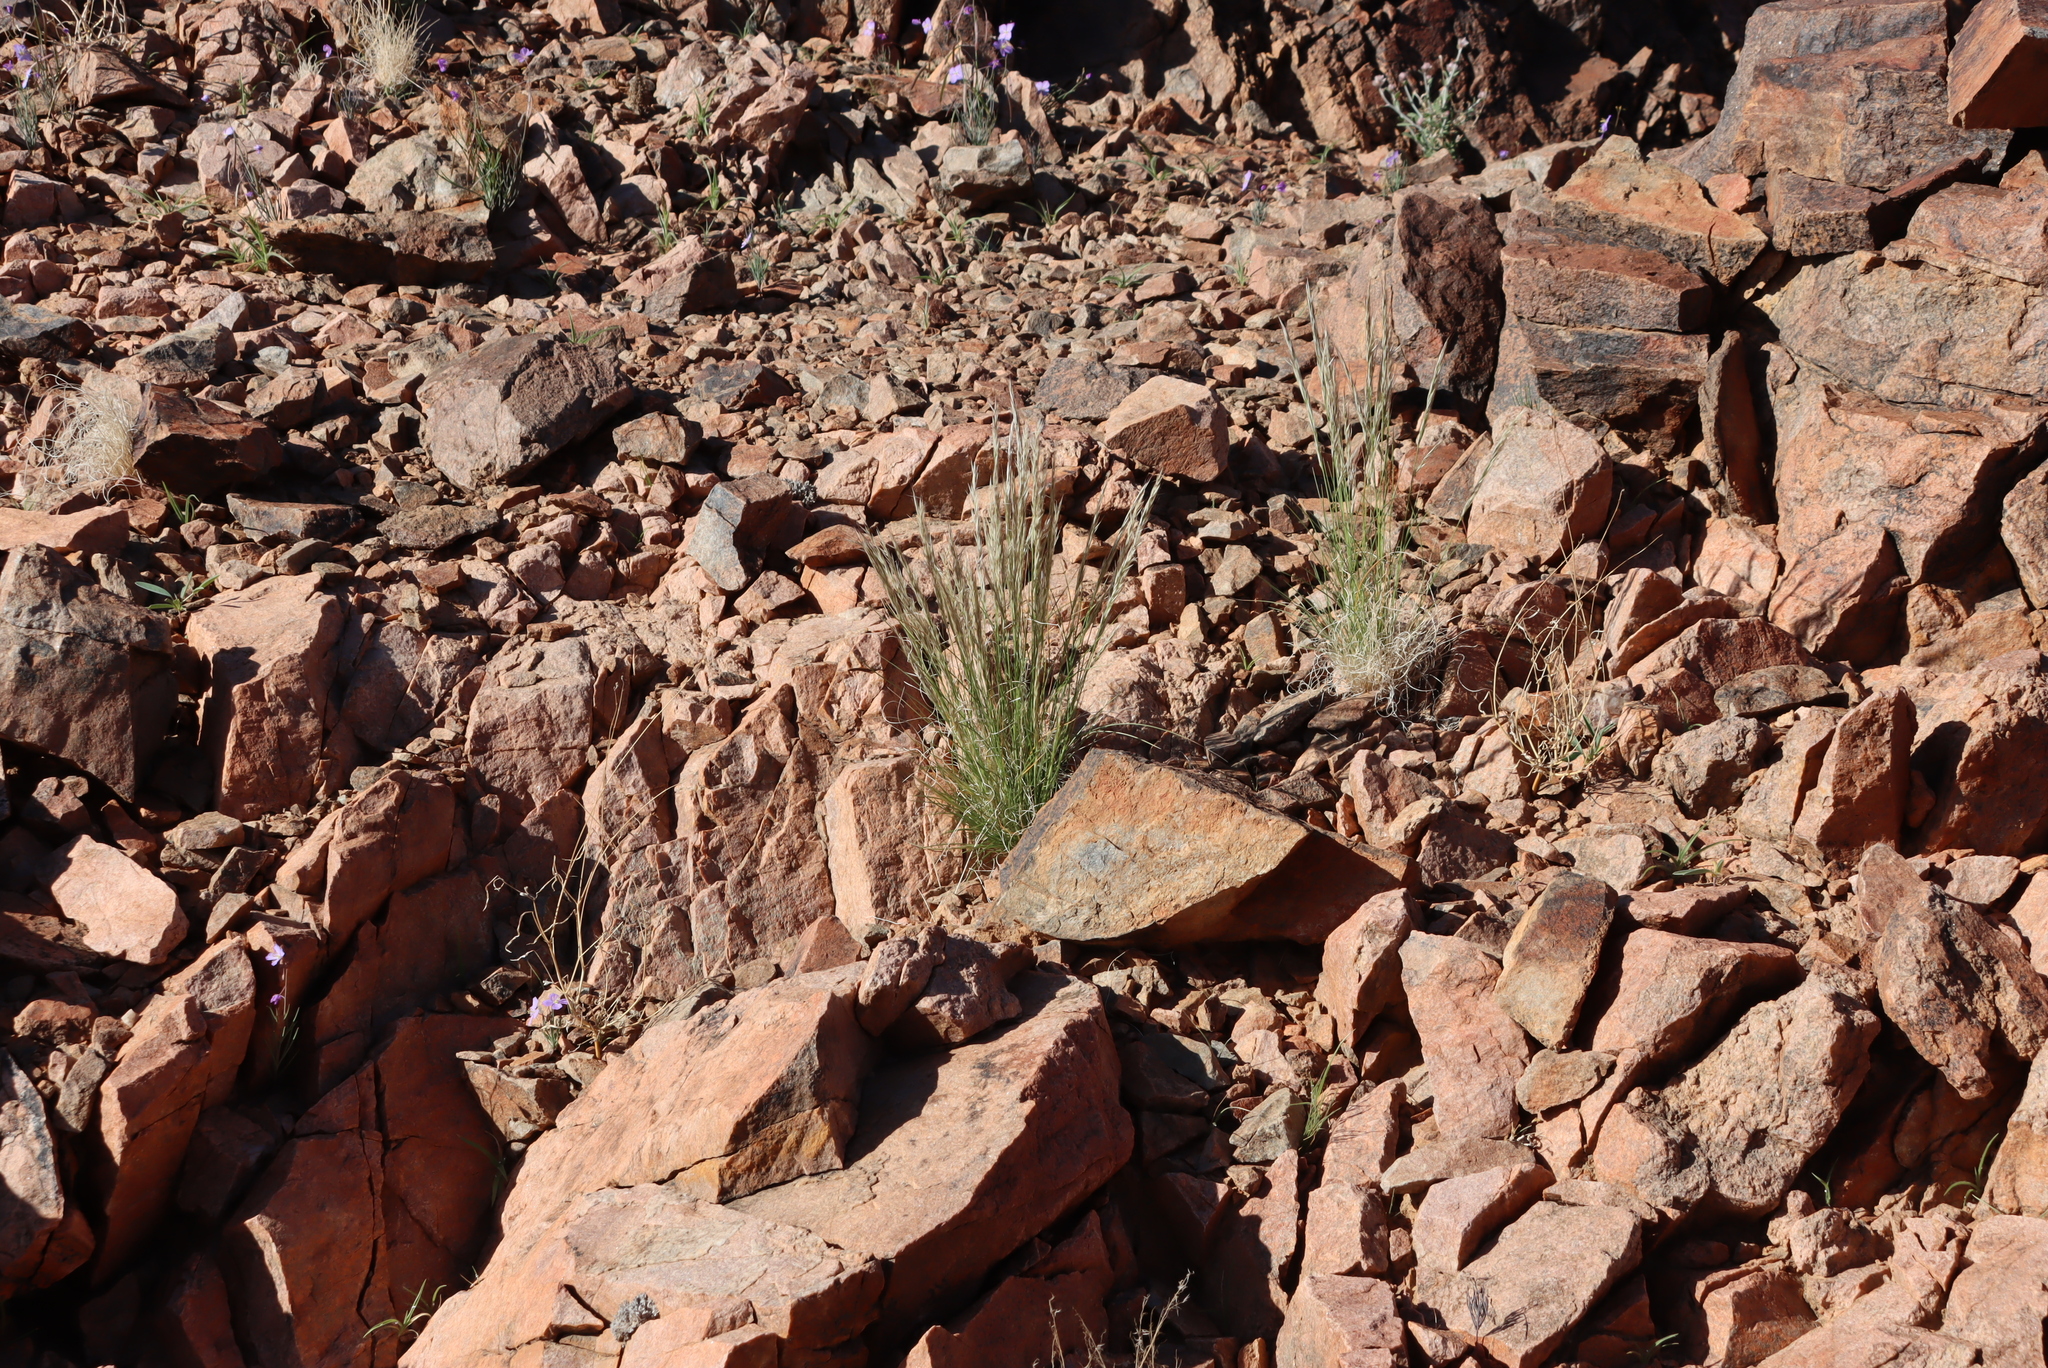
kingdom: Plantae
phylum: Tracheophyta
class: Liliopsida
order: Poales
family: Poaceae
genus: Enneapogon
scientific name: Enneapogon scaber
